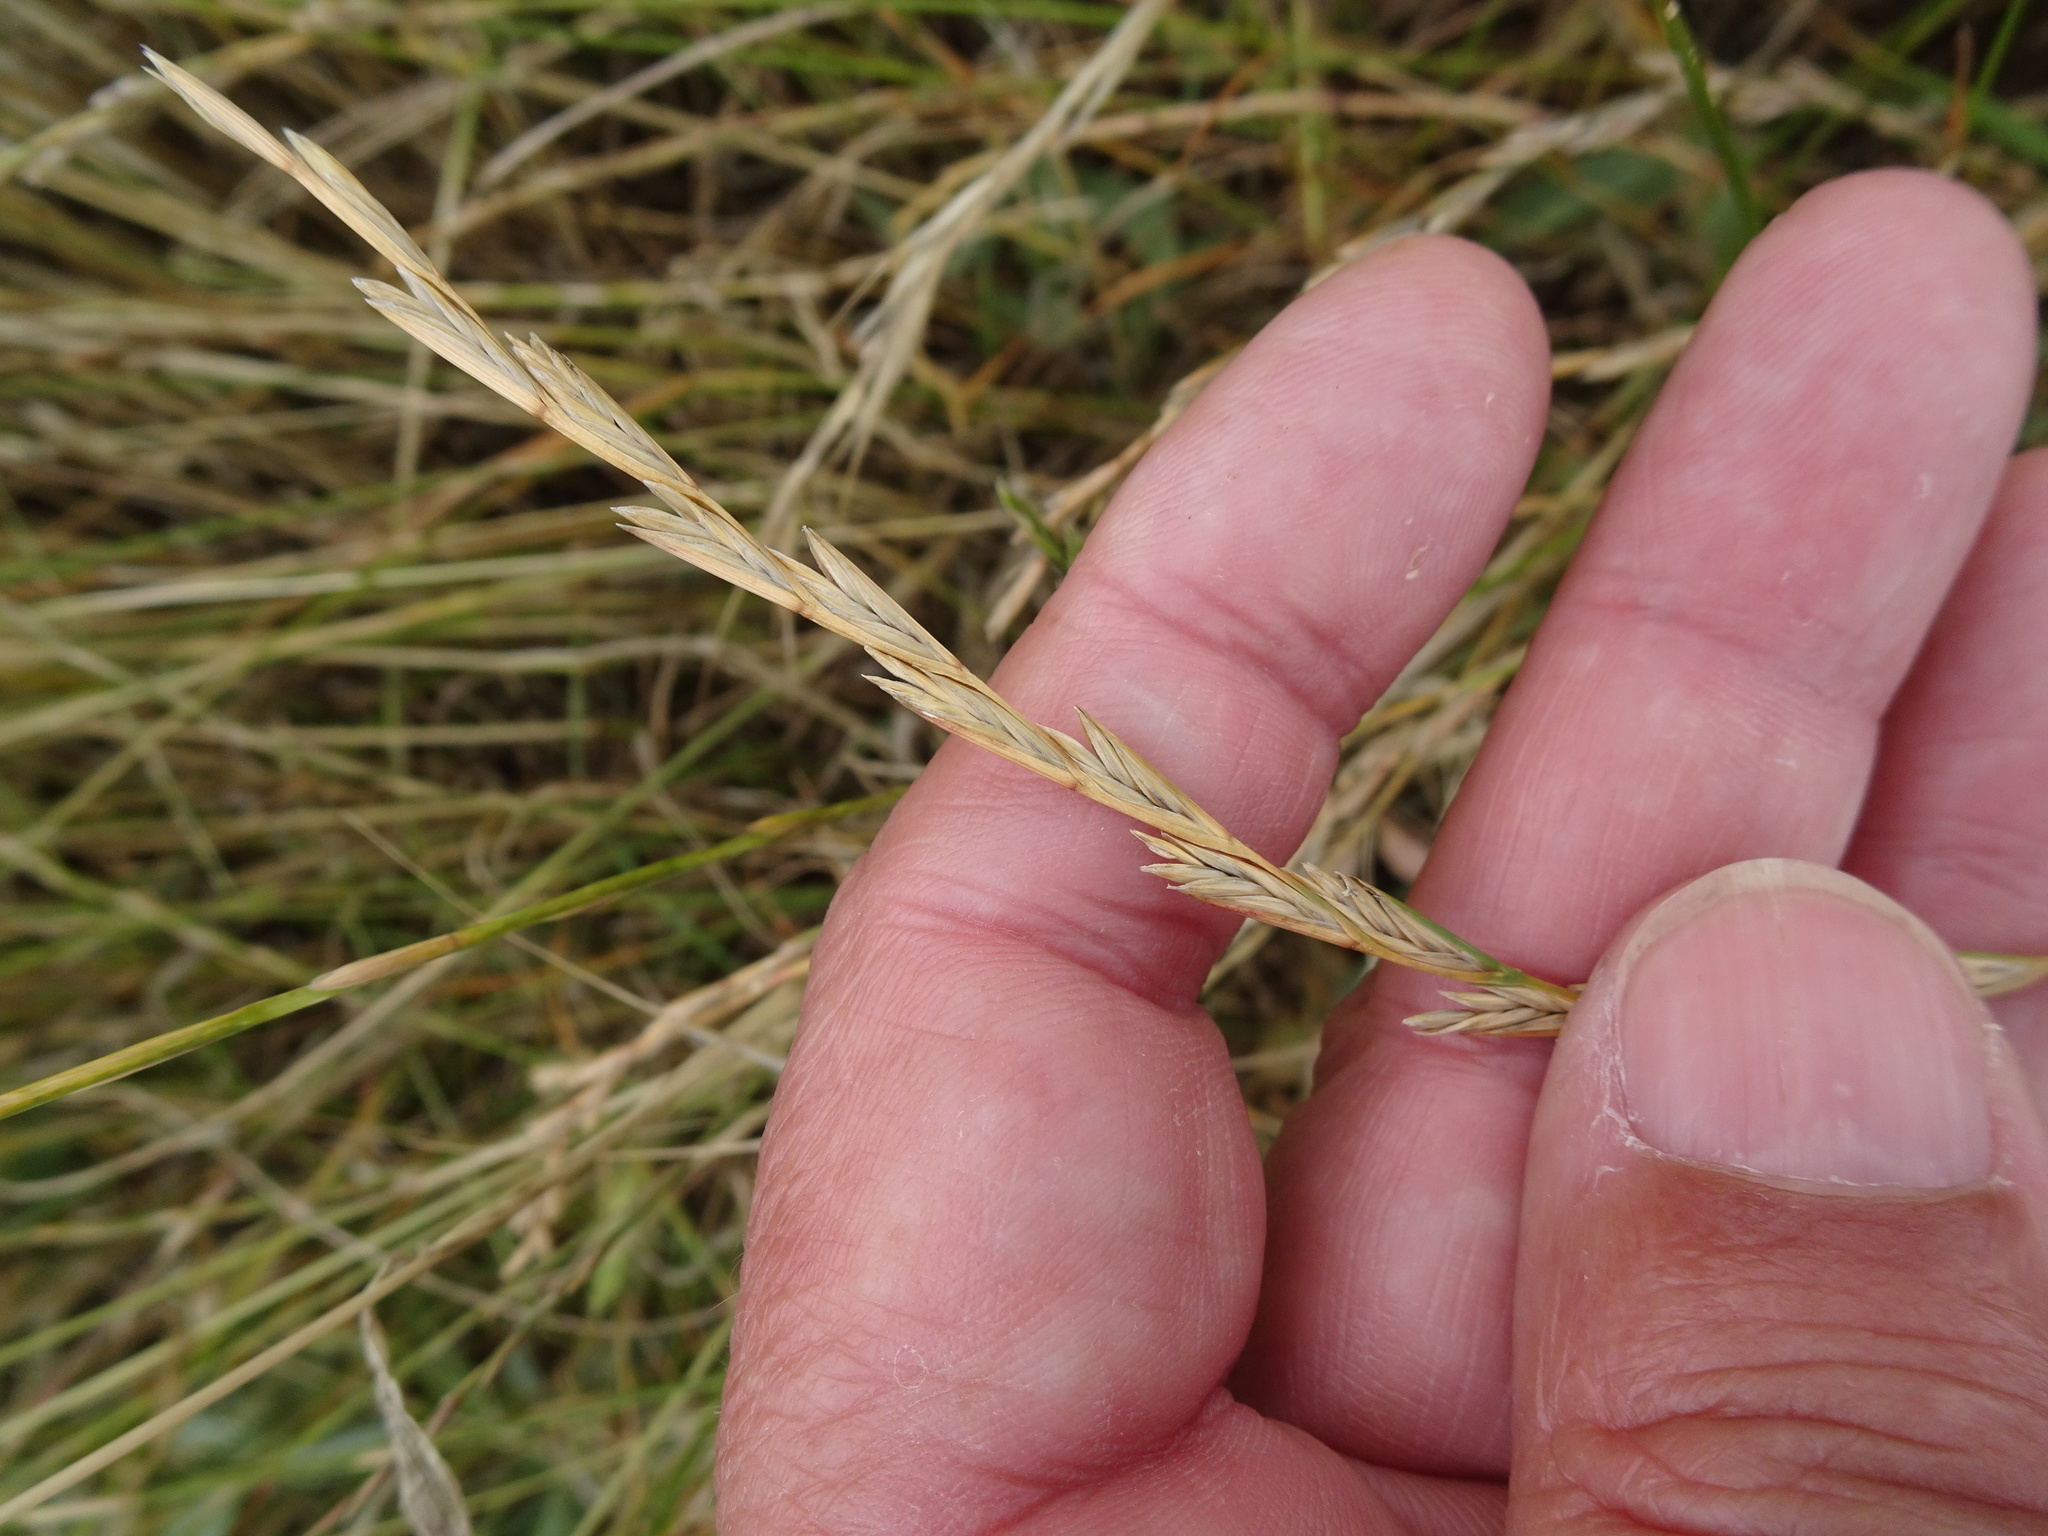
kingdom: Plantae
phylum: Tracheophyta
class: Liliopsida
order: Poales
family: Poaceae
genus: Lolium
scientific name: Lolium perenne
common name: Perennial ryegrass
